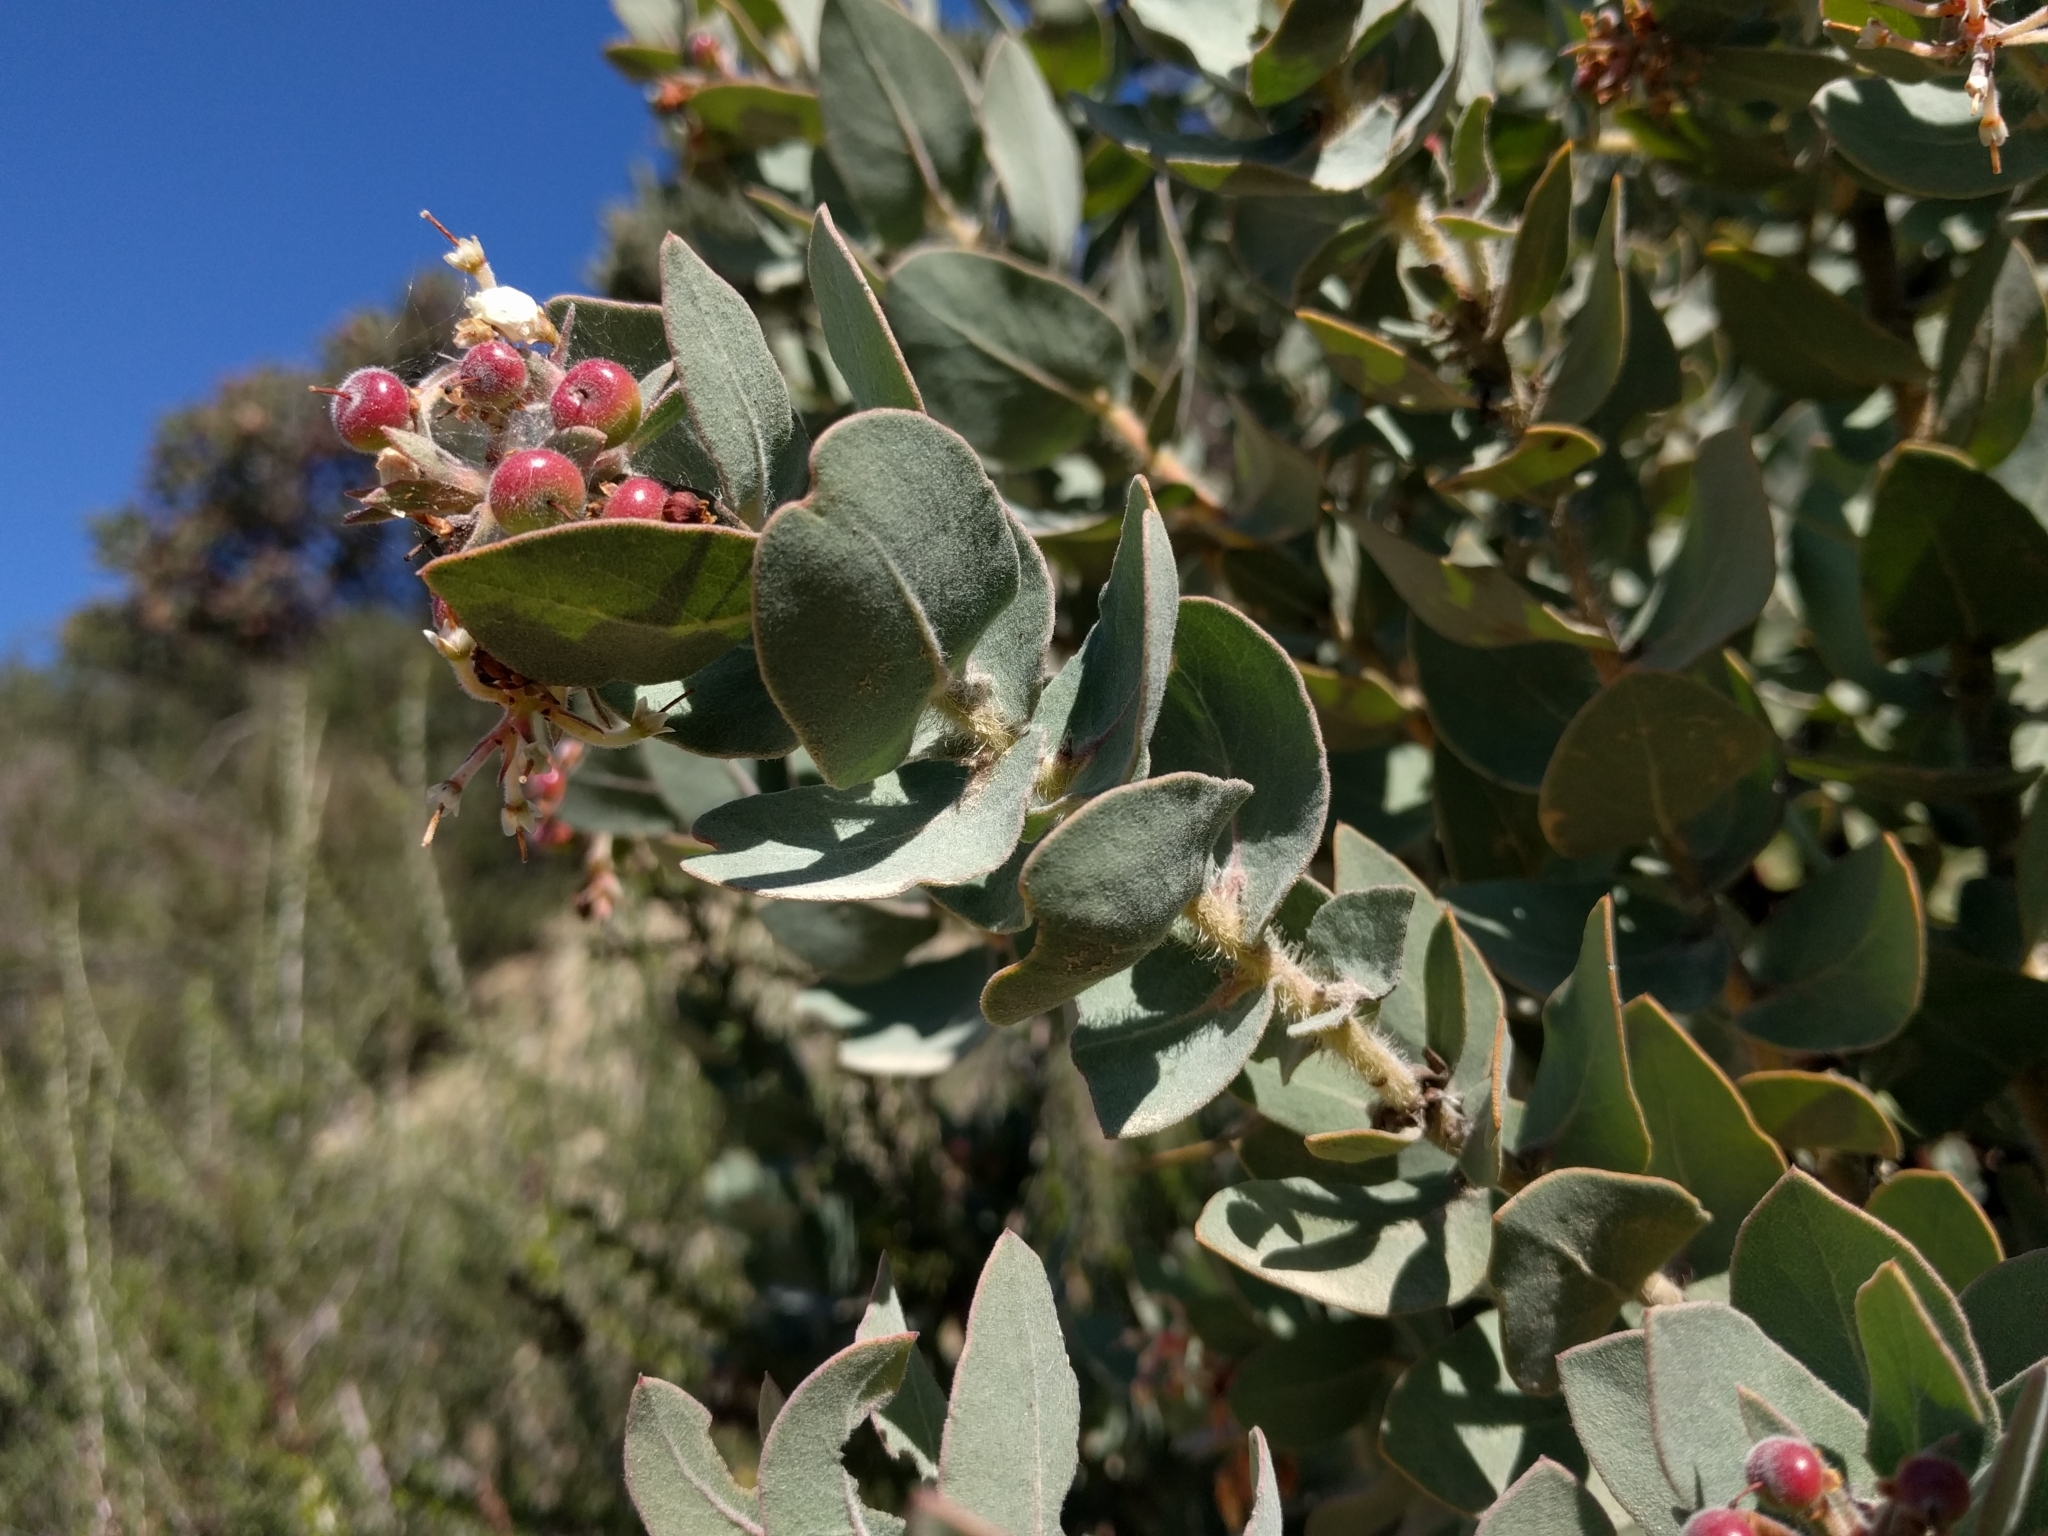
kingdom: Plantae
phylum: Tracheophyta
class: Magnoliopsida
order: Ericales
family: Ericaceae
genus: Arctostaphylos
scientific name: Arctostaphylos auriculata
